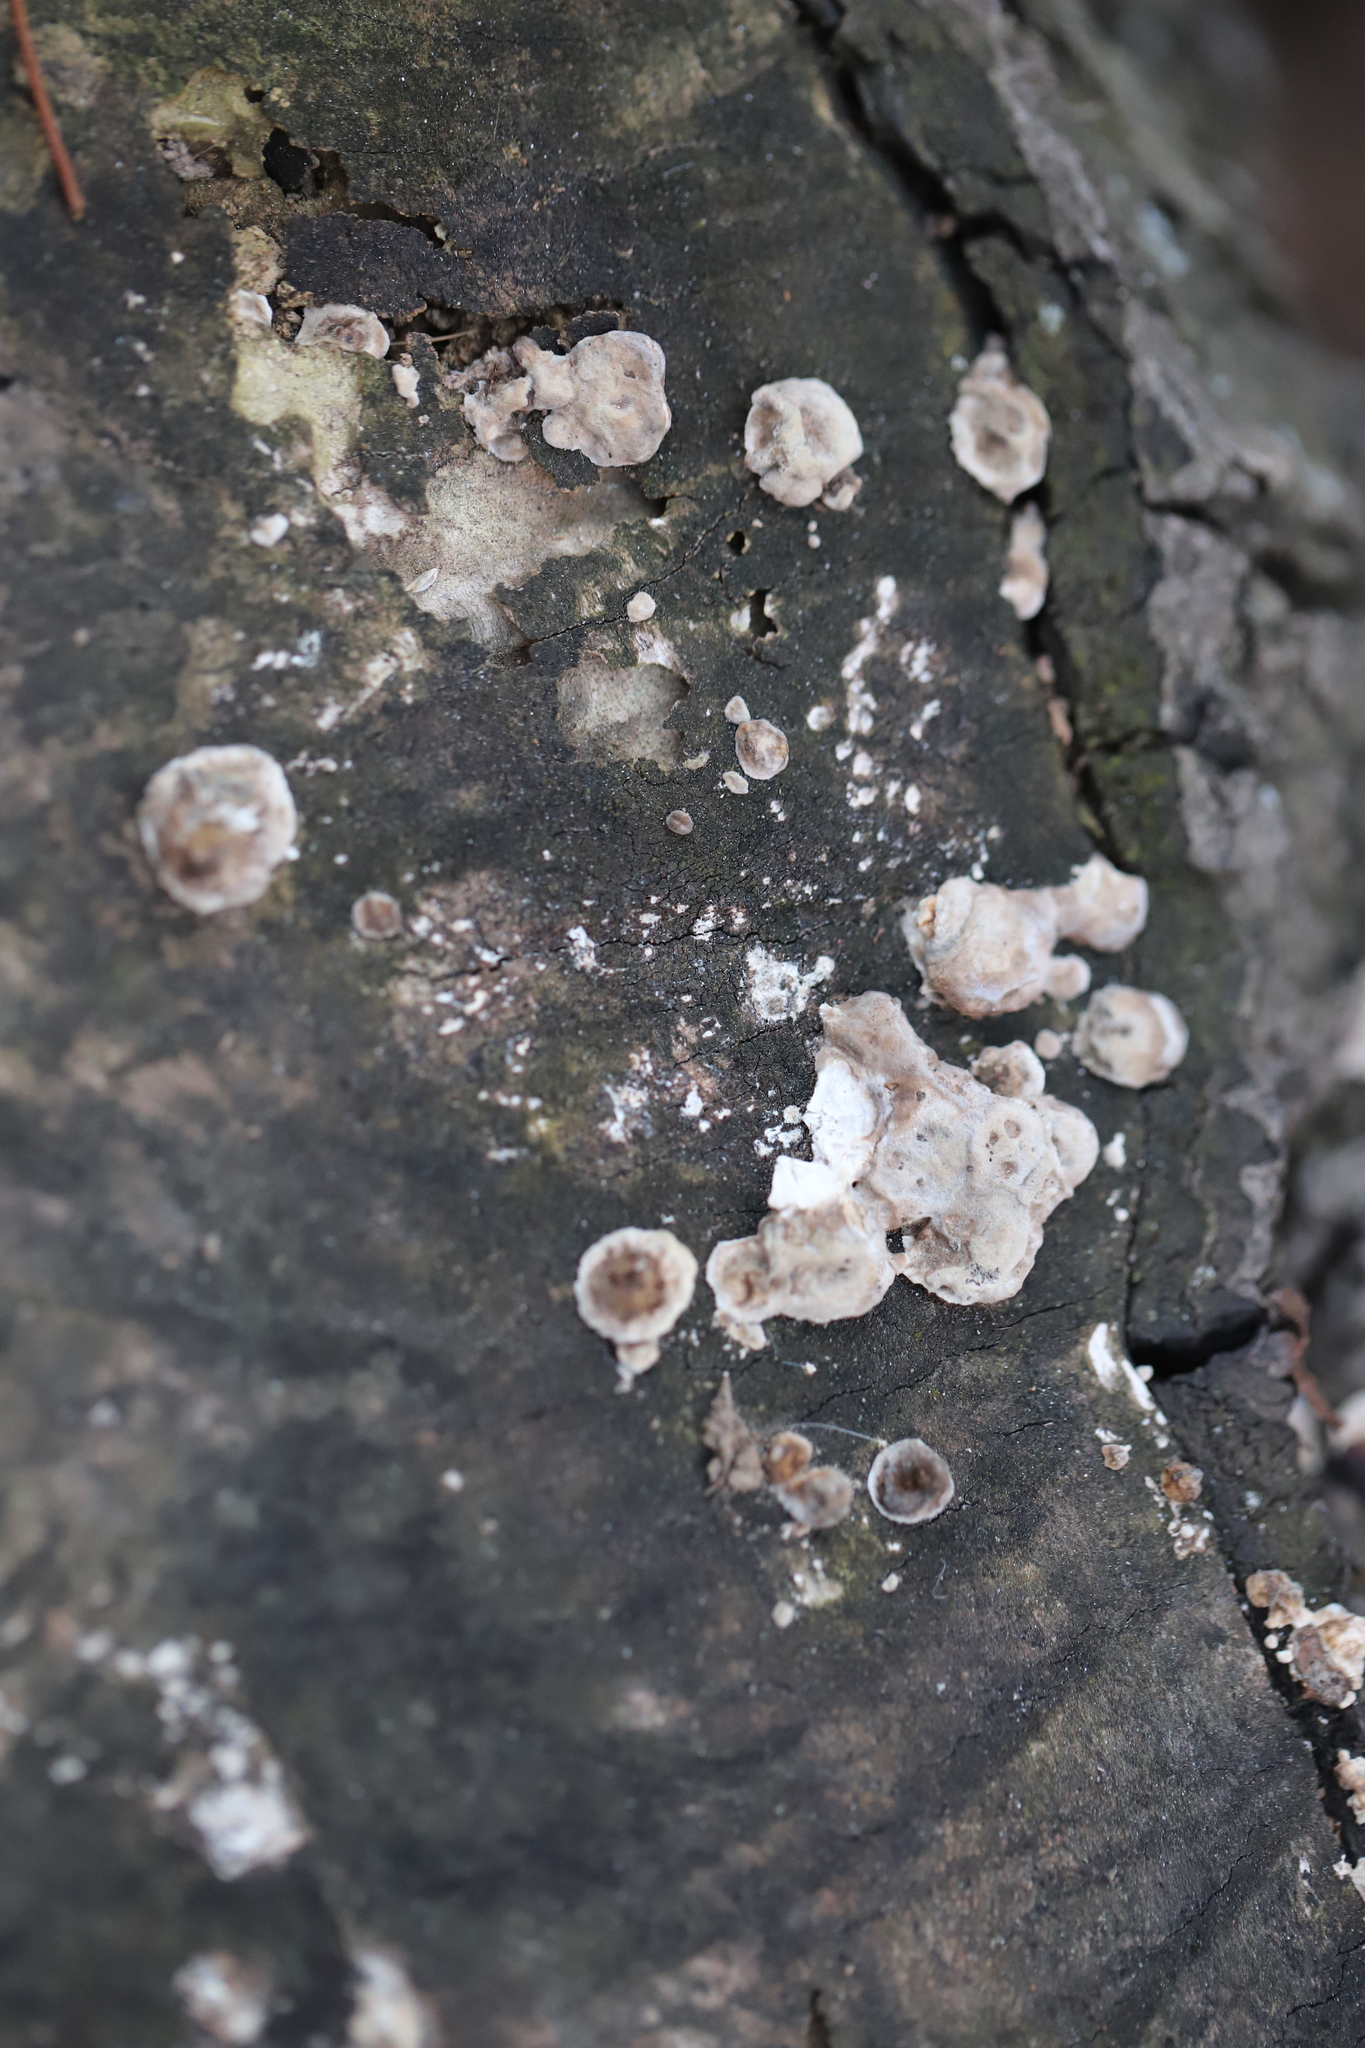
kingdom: Fungi
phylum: Basidiomycota
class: Agaricomycetes
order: Polyporales
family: Polyporaceae
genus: Trametes
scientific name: Trametes versicolor
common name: Turkeytail
